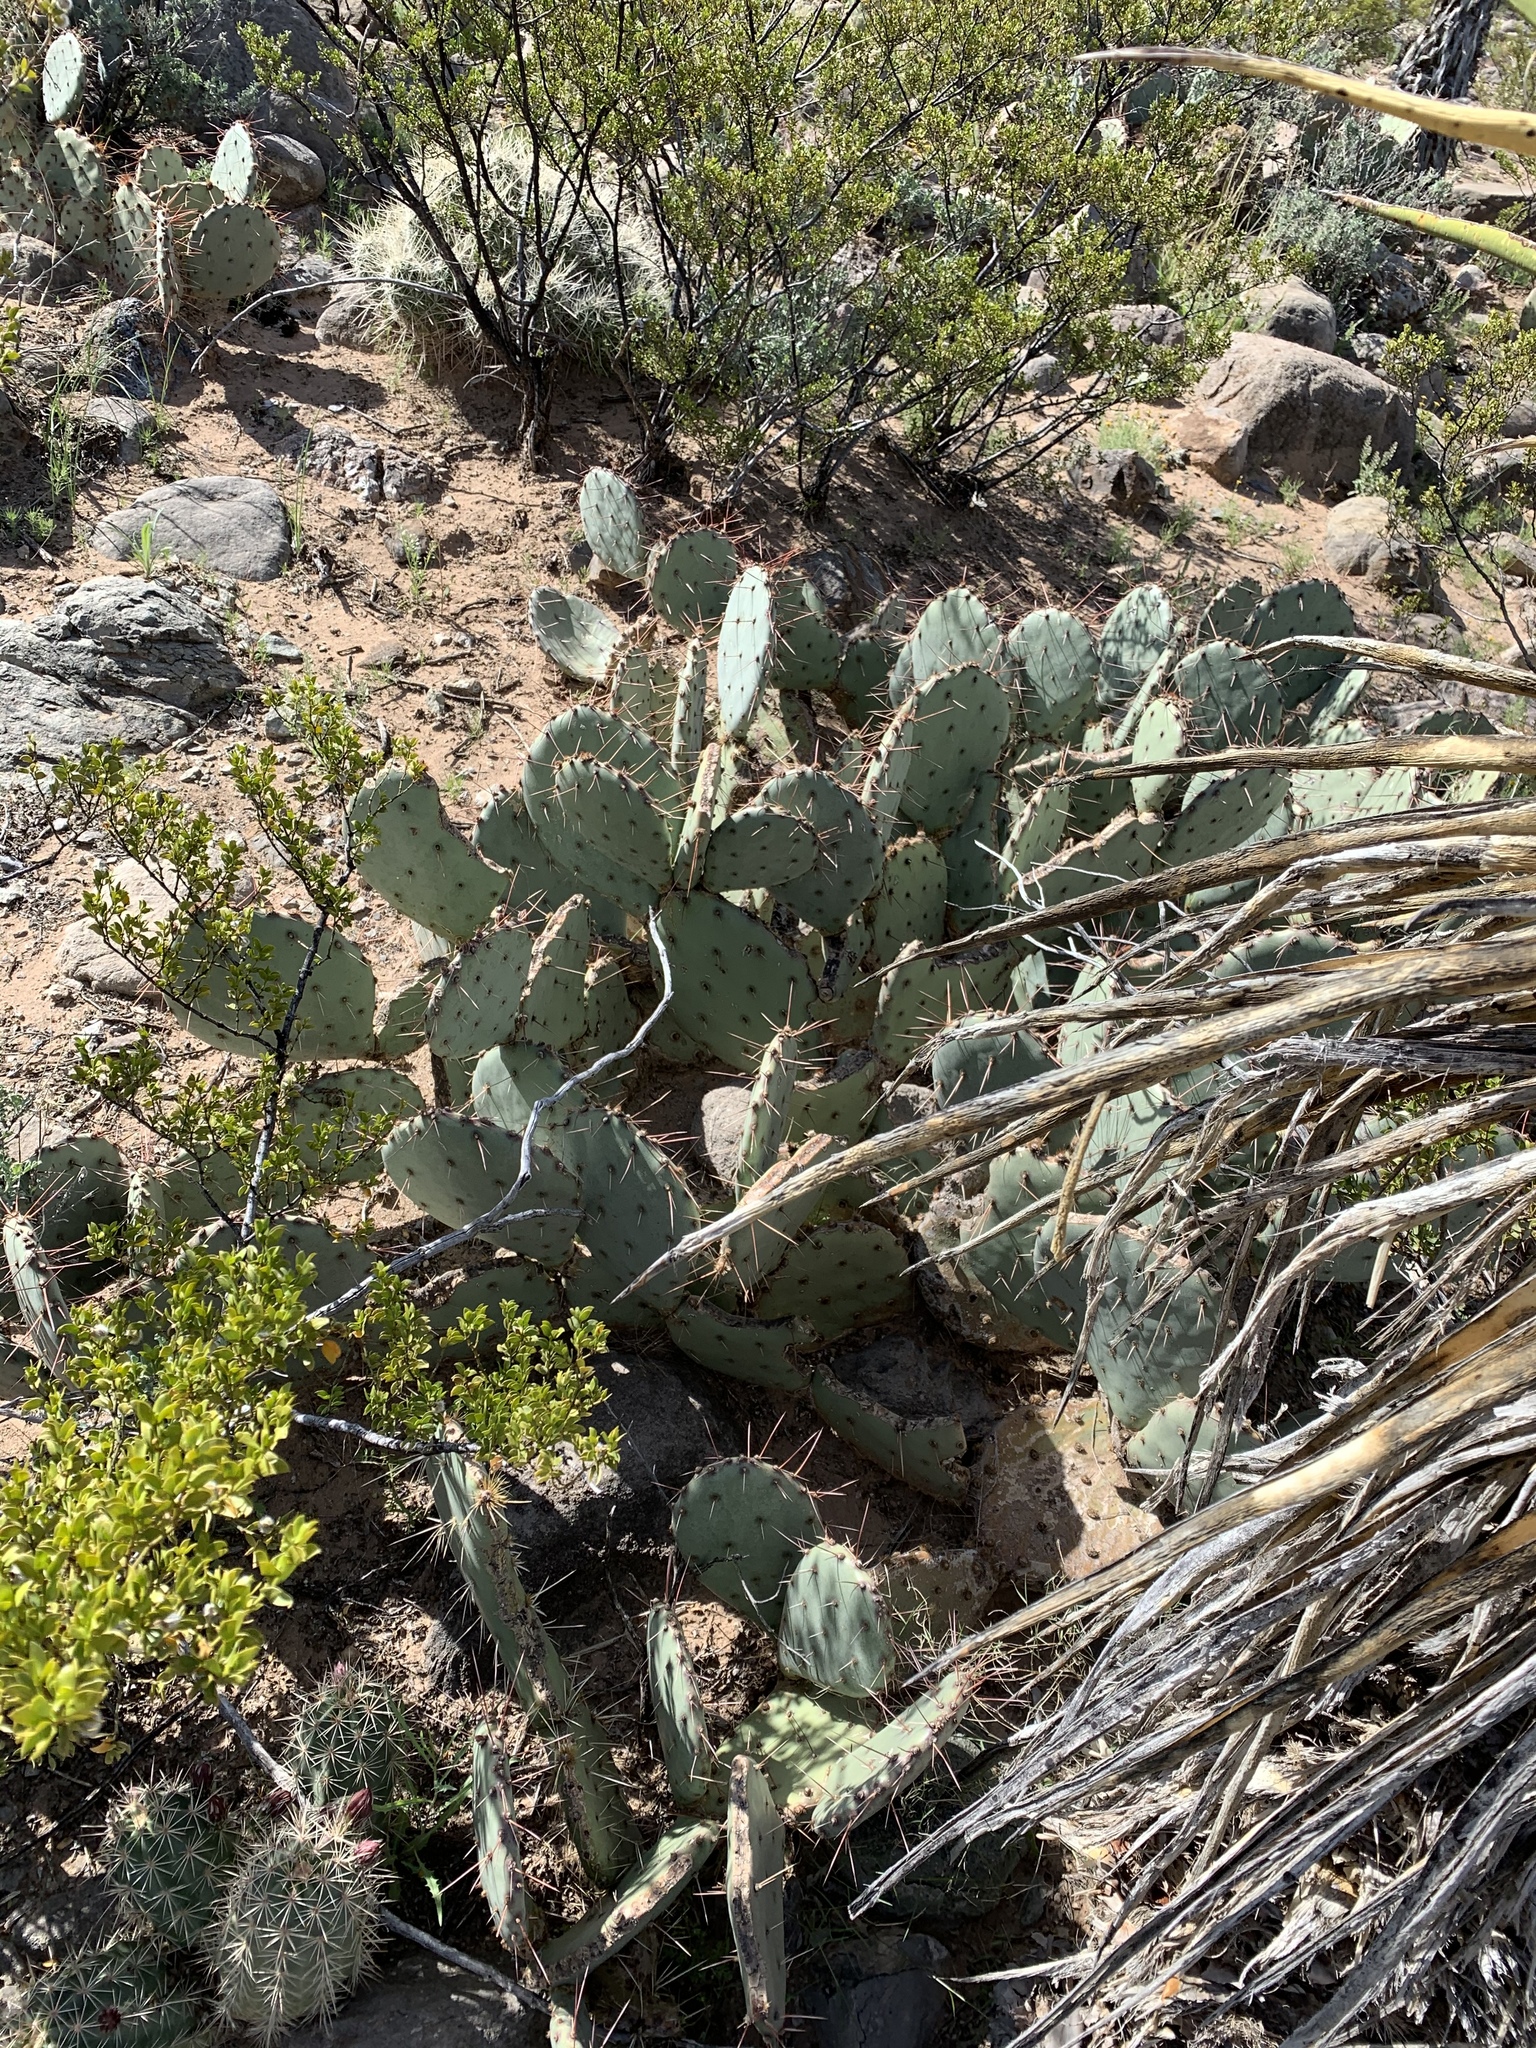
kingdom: Plantae
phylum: Tracheophyta
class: Magnoliopsida
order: Caryophyllales
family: Cactaceae
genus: Opuntia
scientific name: Opuntia engelmannii
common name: Cactus-apple
